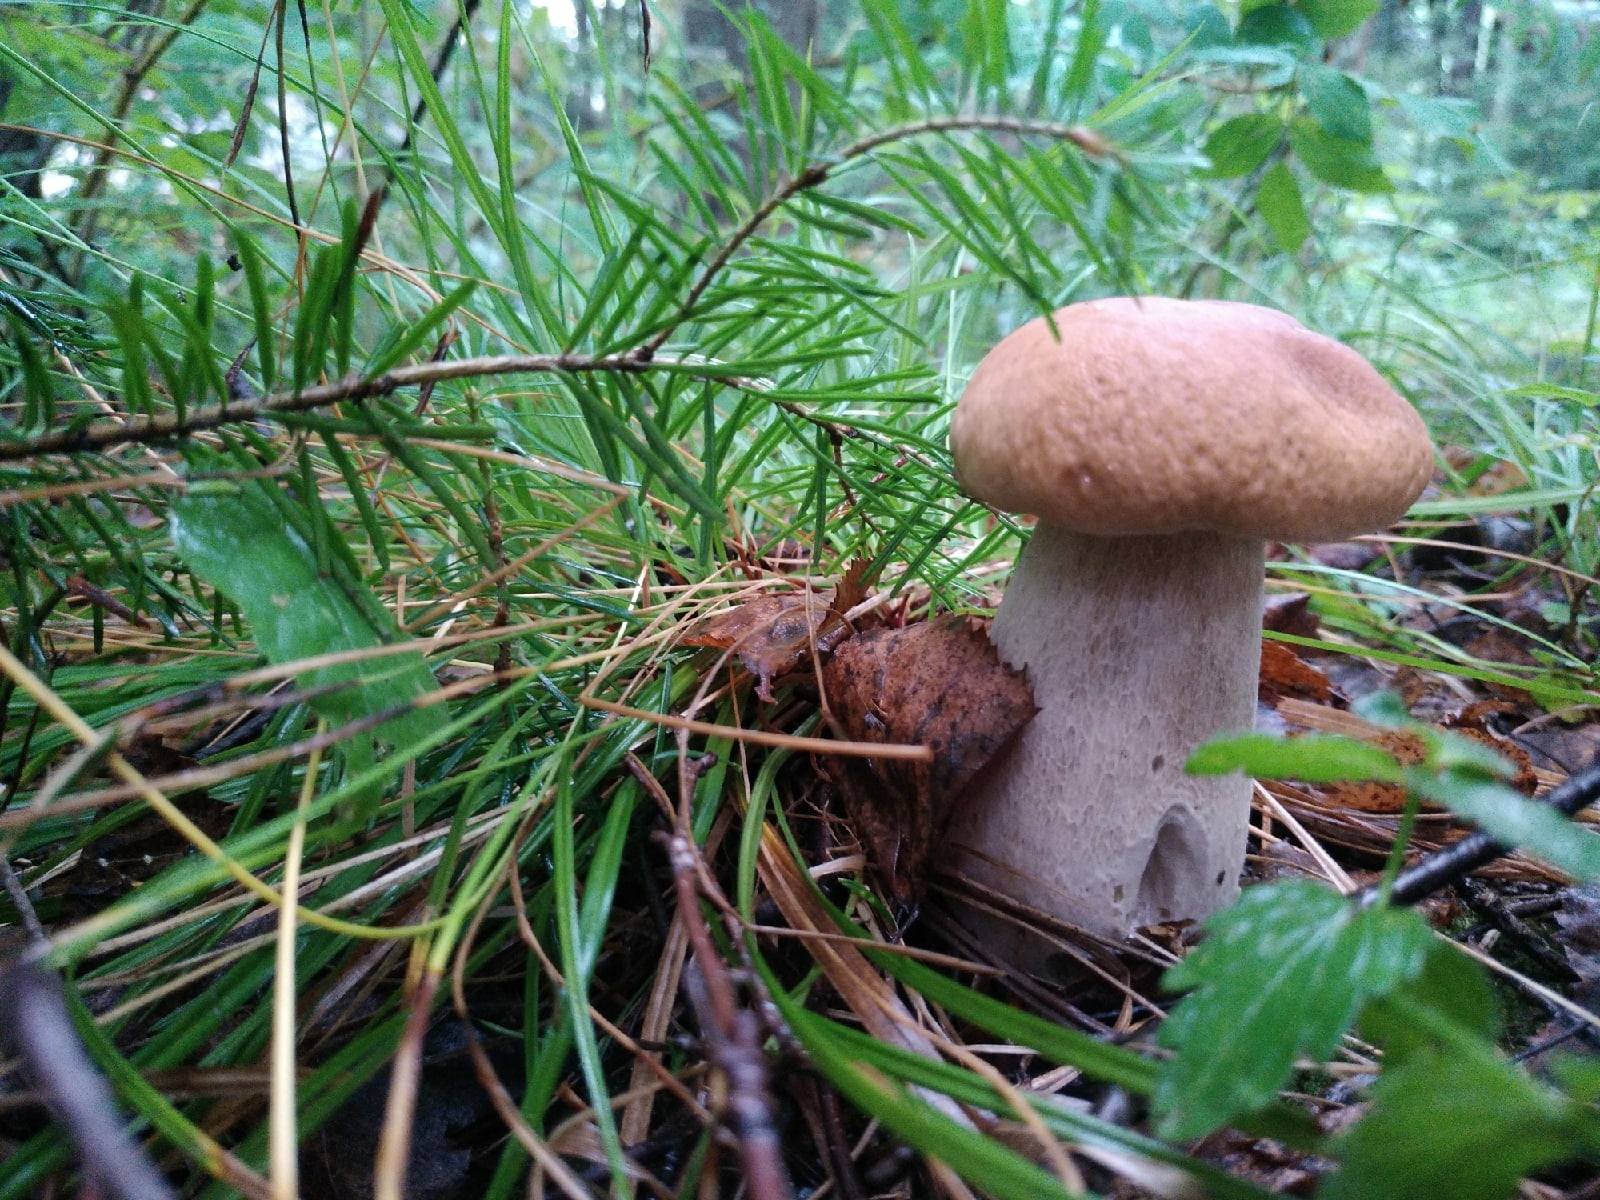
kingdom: Fungi
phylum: Basidiomycota
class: Agaricomycetes
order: Boletales
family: Boletaceae
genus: Boletus
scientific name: Boletus edulis
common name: Cep
